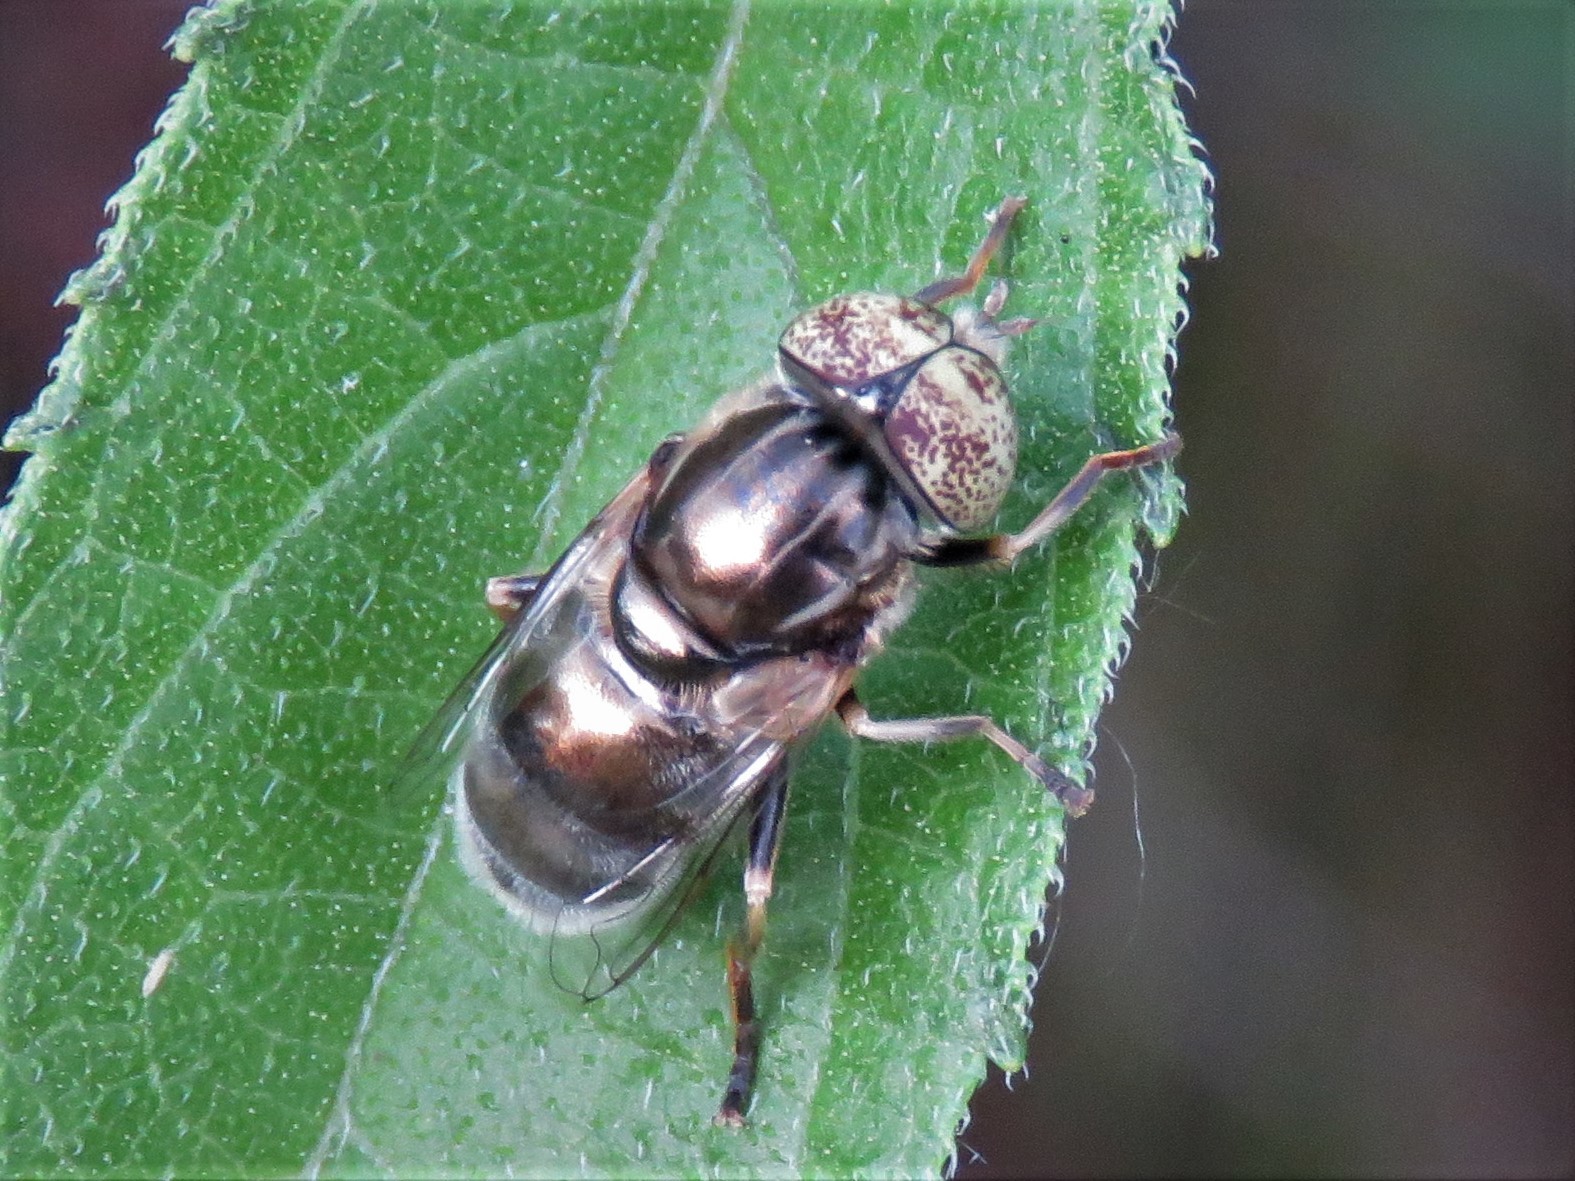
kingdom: Animalia
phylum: Arthropoda
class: Insecta
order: Diptera
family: Syrphidae
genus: Eristalinus
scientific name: Eristalinus aeneus
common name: Syrphid fly
